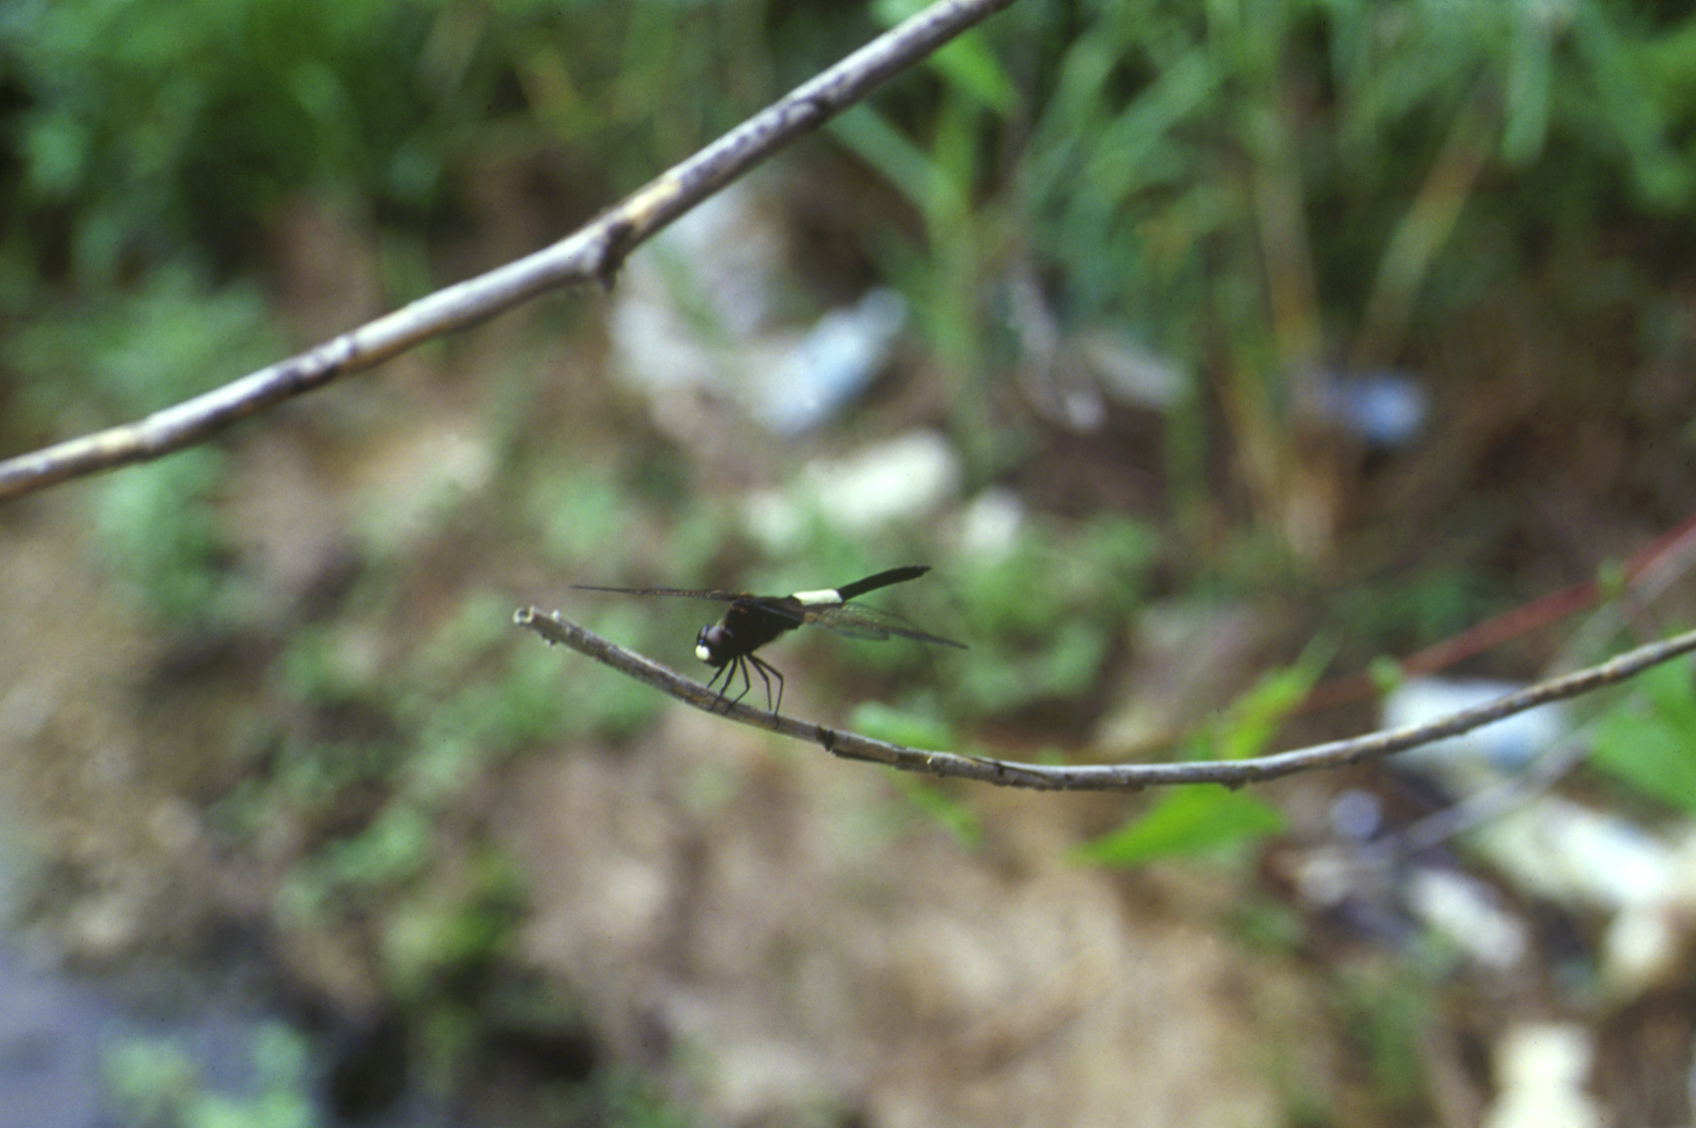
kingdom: Animalia
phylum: Arthropoda
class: Insecta
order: Odonata
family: Libellulidae
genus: Pseudothemis
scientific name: Pseudothemis zonata
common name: Pied skimmer
